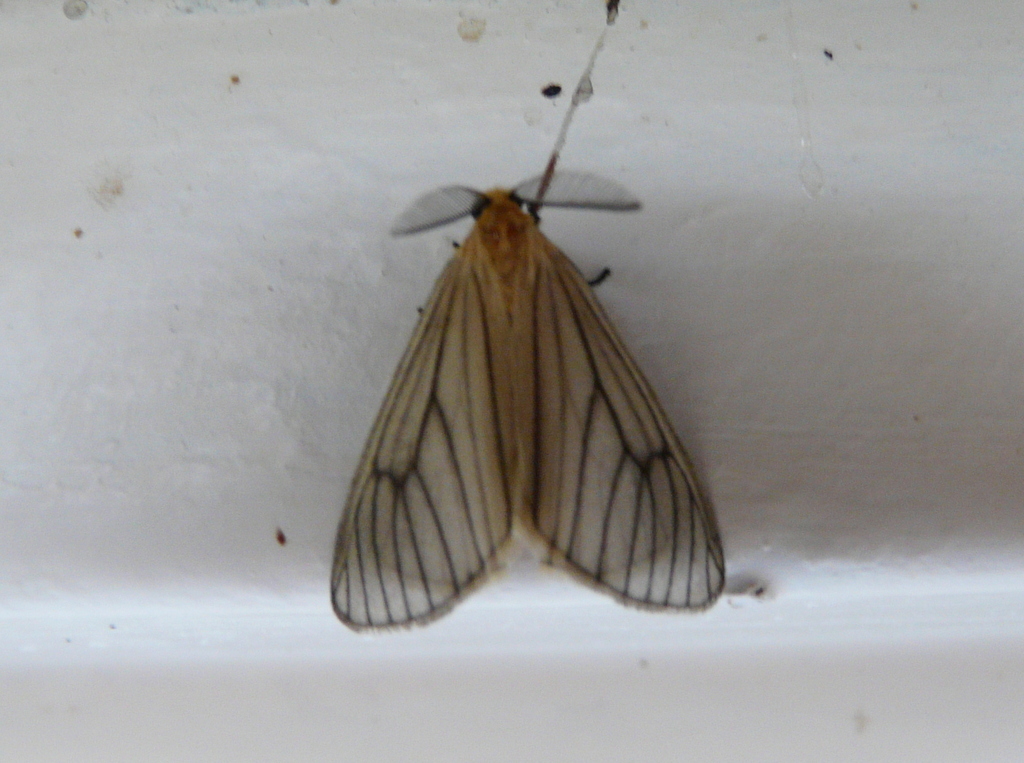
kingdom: Animalia
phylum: Arthropoda
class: Insecta
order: Lepidoptera
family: Eupterotidae
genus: Hibrildes
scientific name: Hibrildes crawshayi
